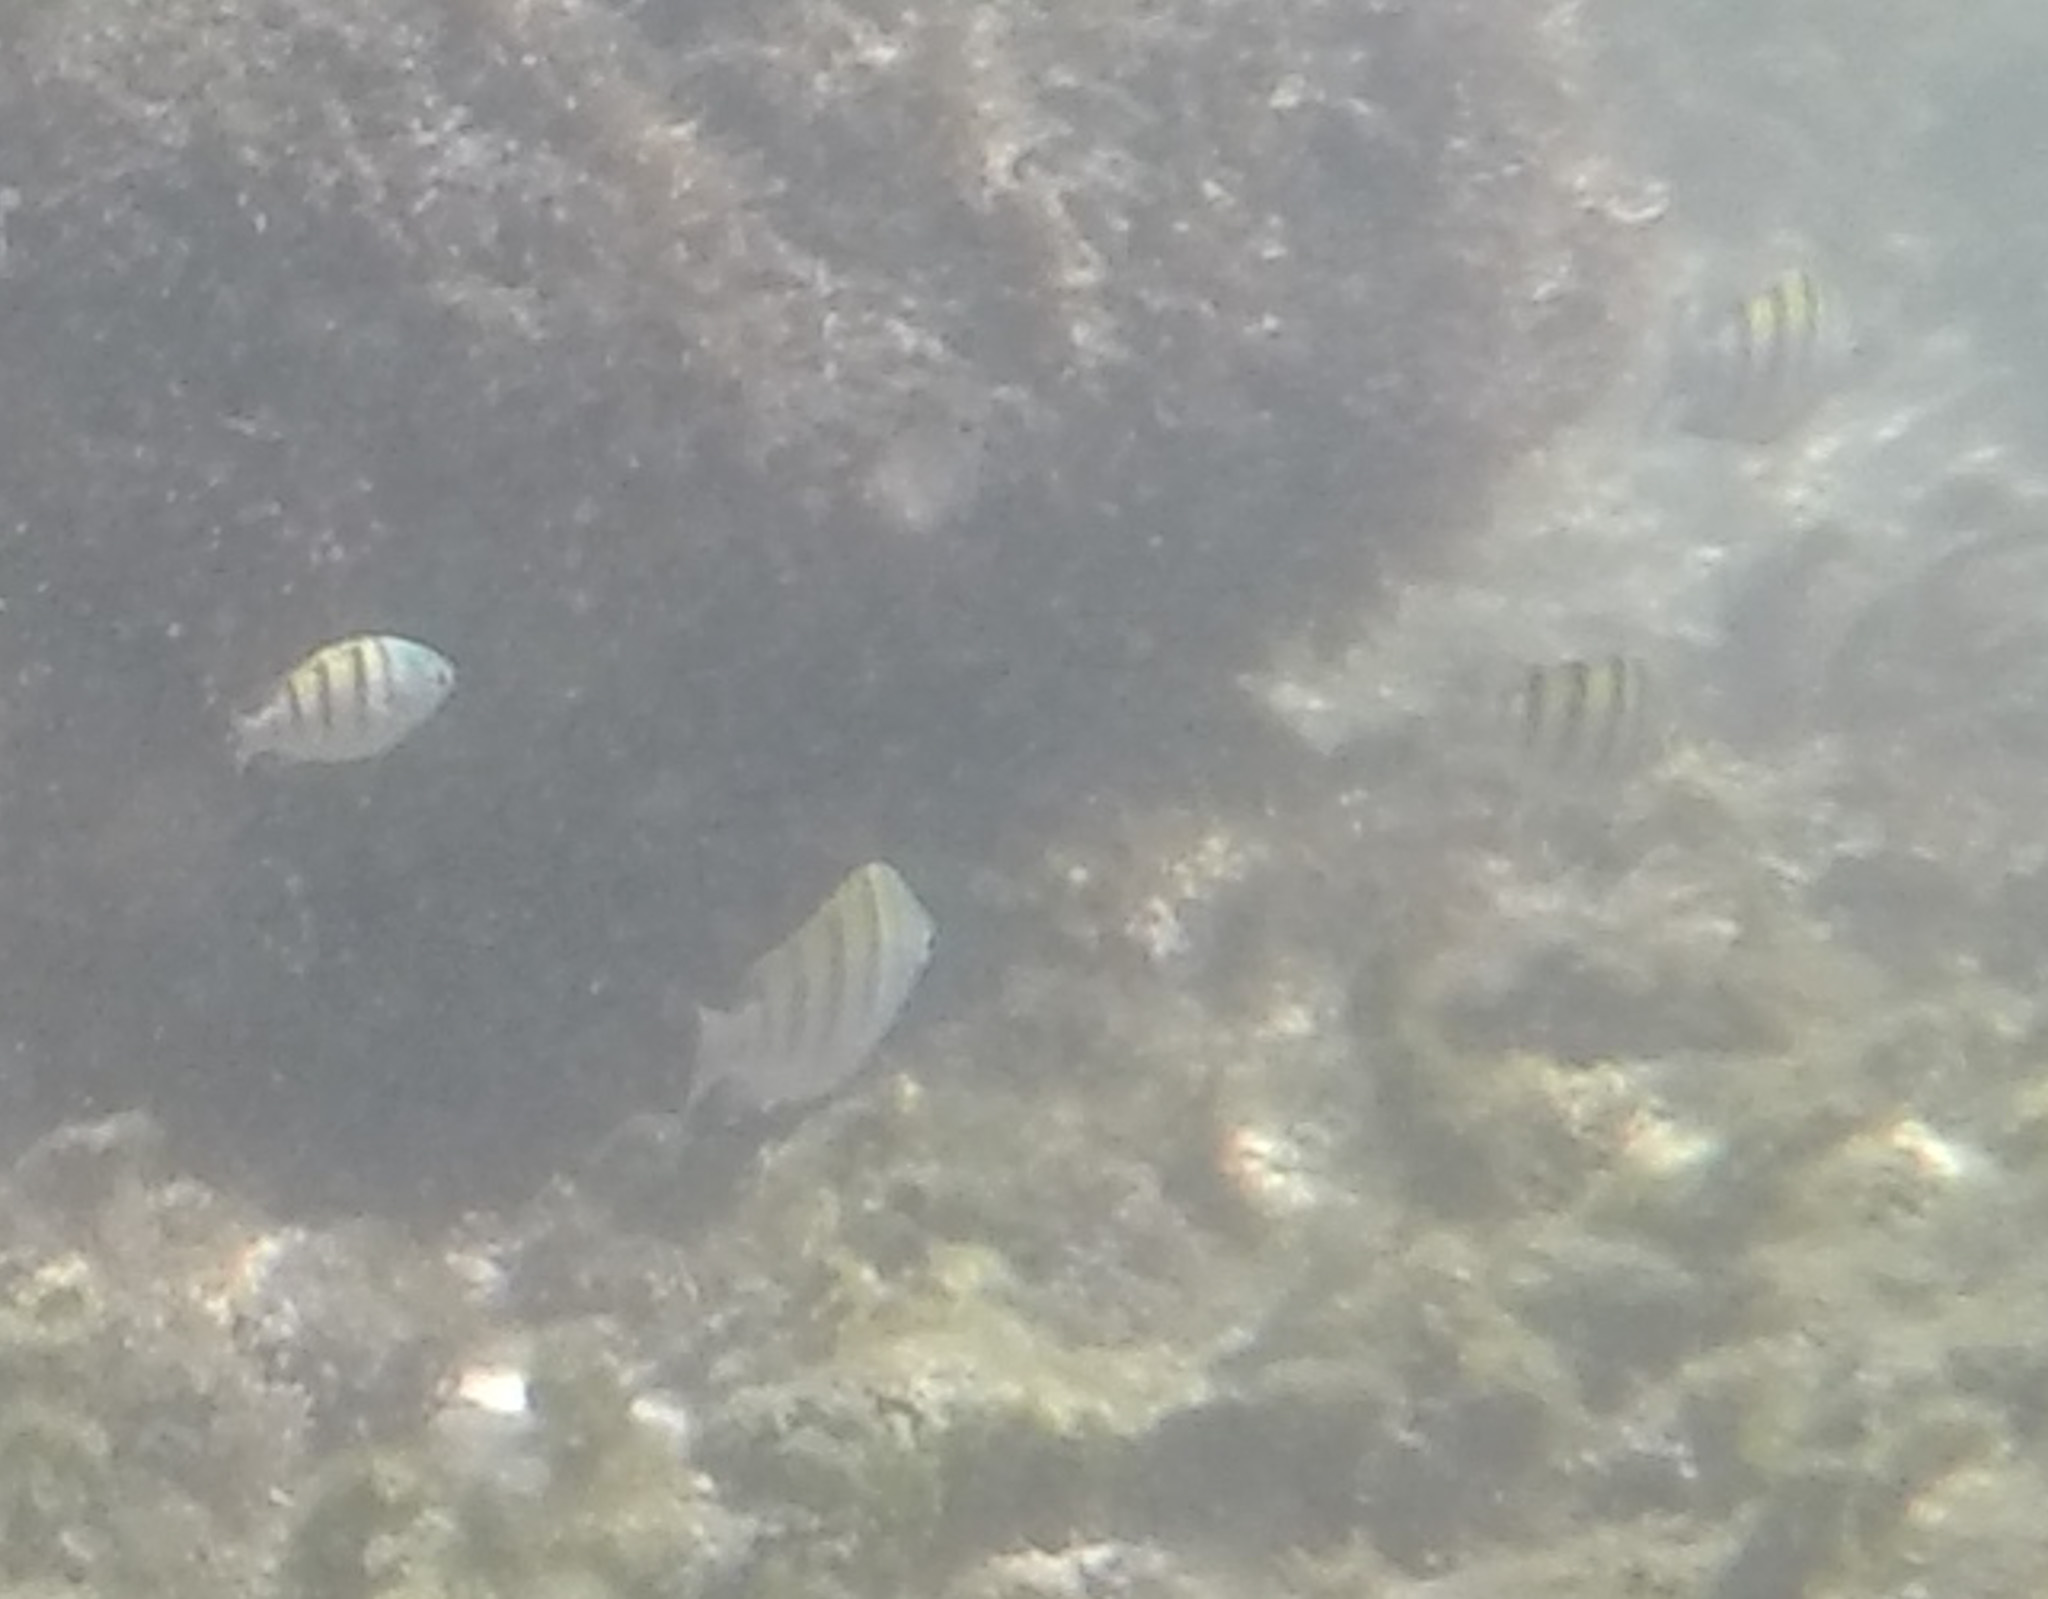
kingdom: Animalia
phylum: Chordata
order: Perciformes
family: Pomacentridae
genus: Abudefduf
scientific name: Abudefduf troschelii
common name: Panamic sergeant major
